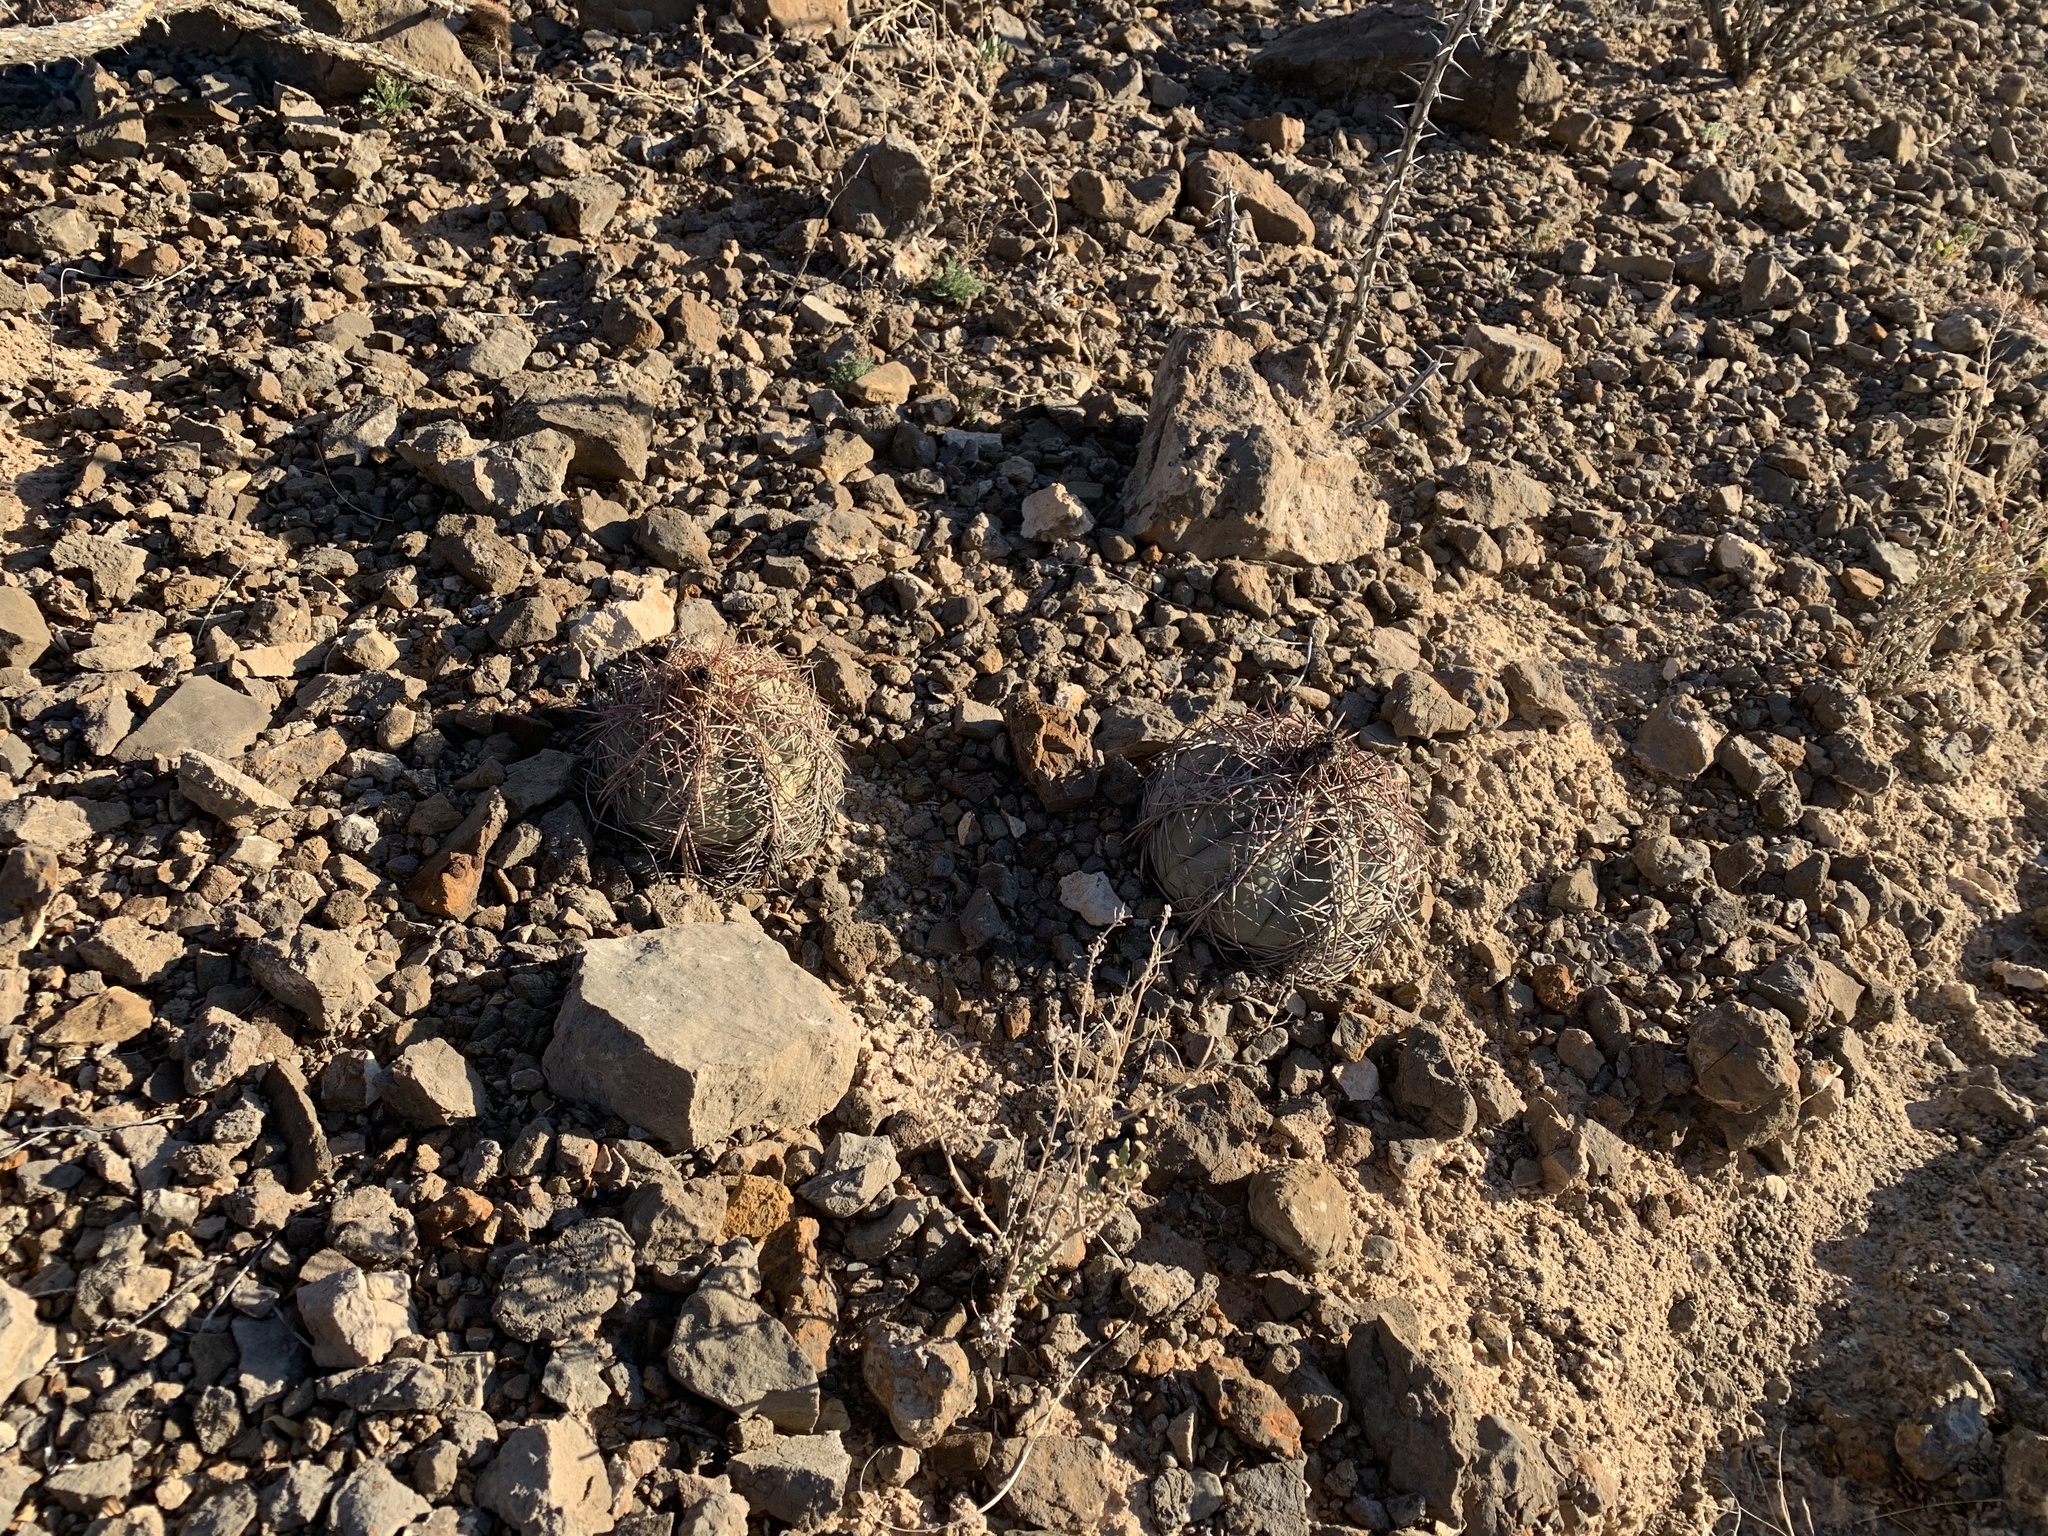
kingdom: Plantae
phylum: Tracheophyta
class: Magnoliopsida
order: Caryophyllales
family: Cactaceae
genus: Echinocactus
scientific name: Echinocactus horizonthalonius
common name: Devilshead
